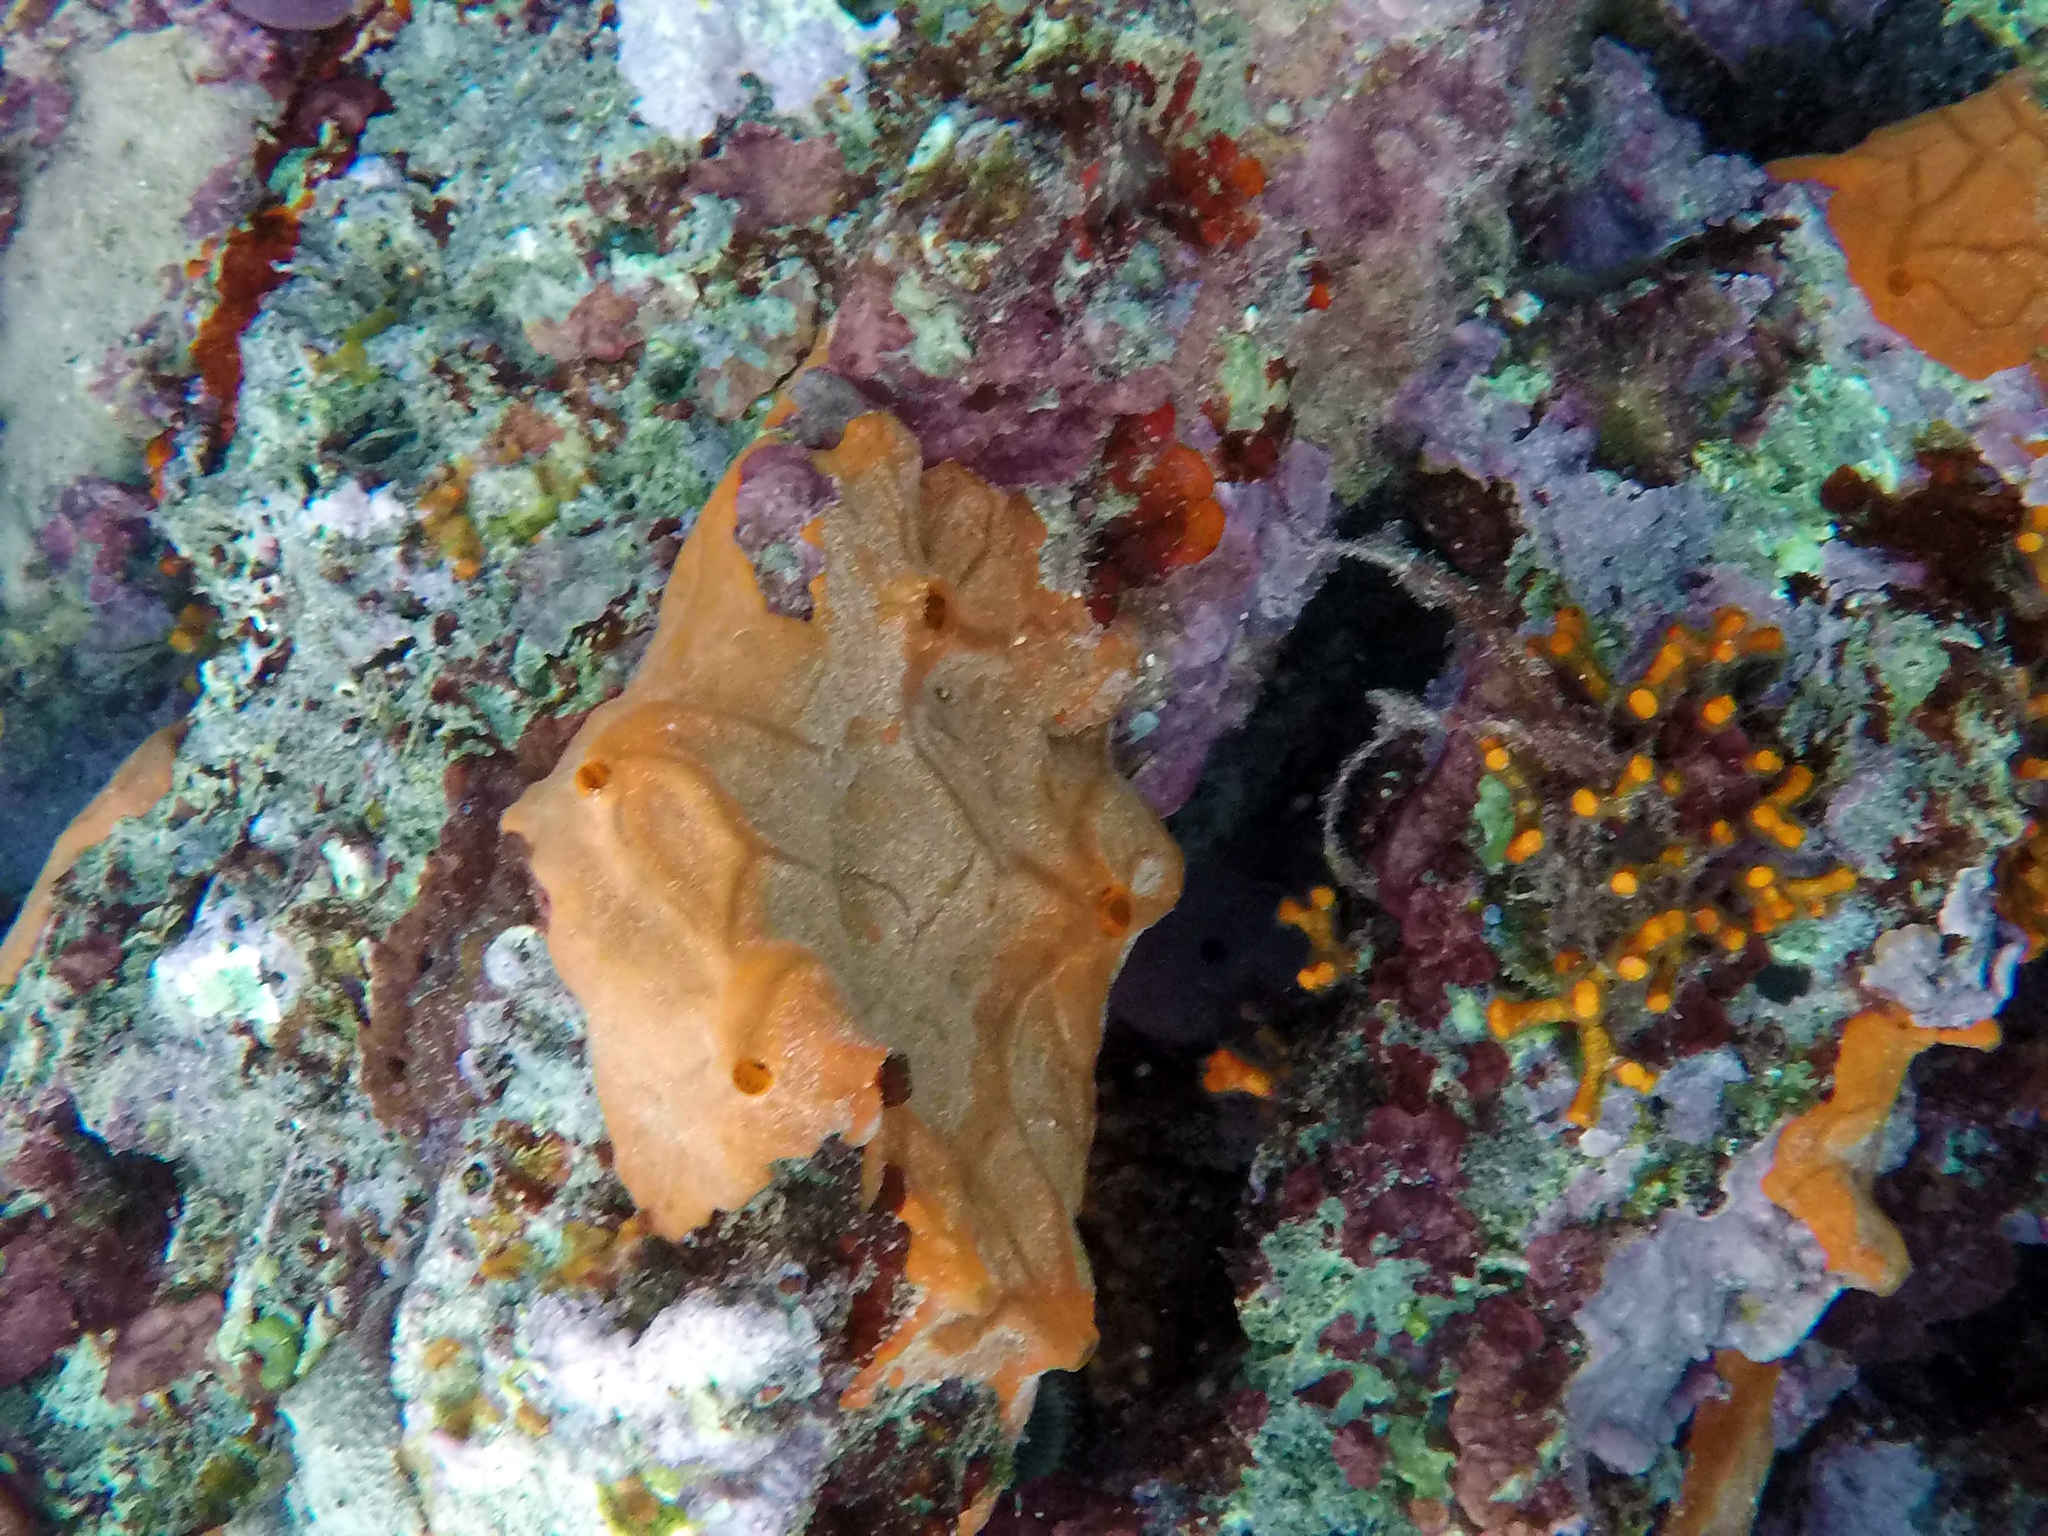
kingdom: Animalia
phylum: Porifera
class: Demospongiae
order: Clionaida
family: Spirastrellidae
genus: Spirastrella
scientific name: Spirastrella cunctatrix
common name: Encrusting orange sponge
